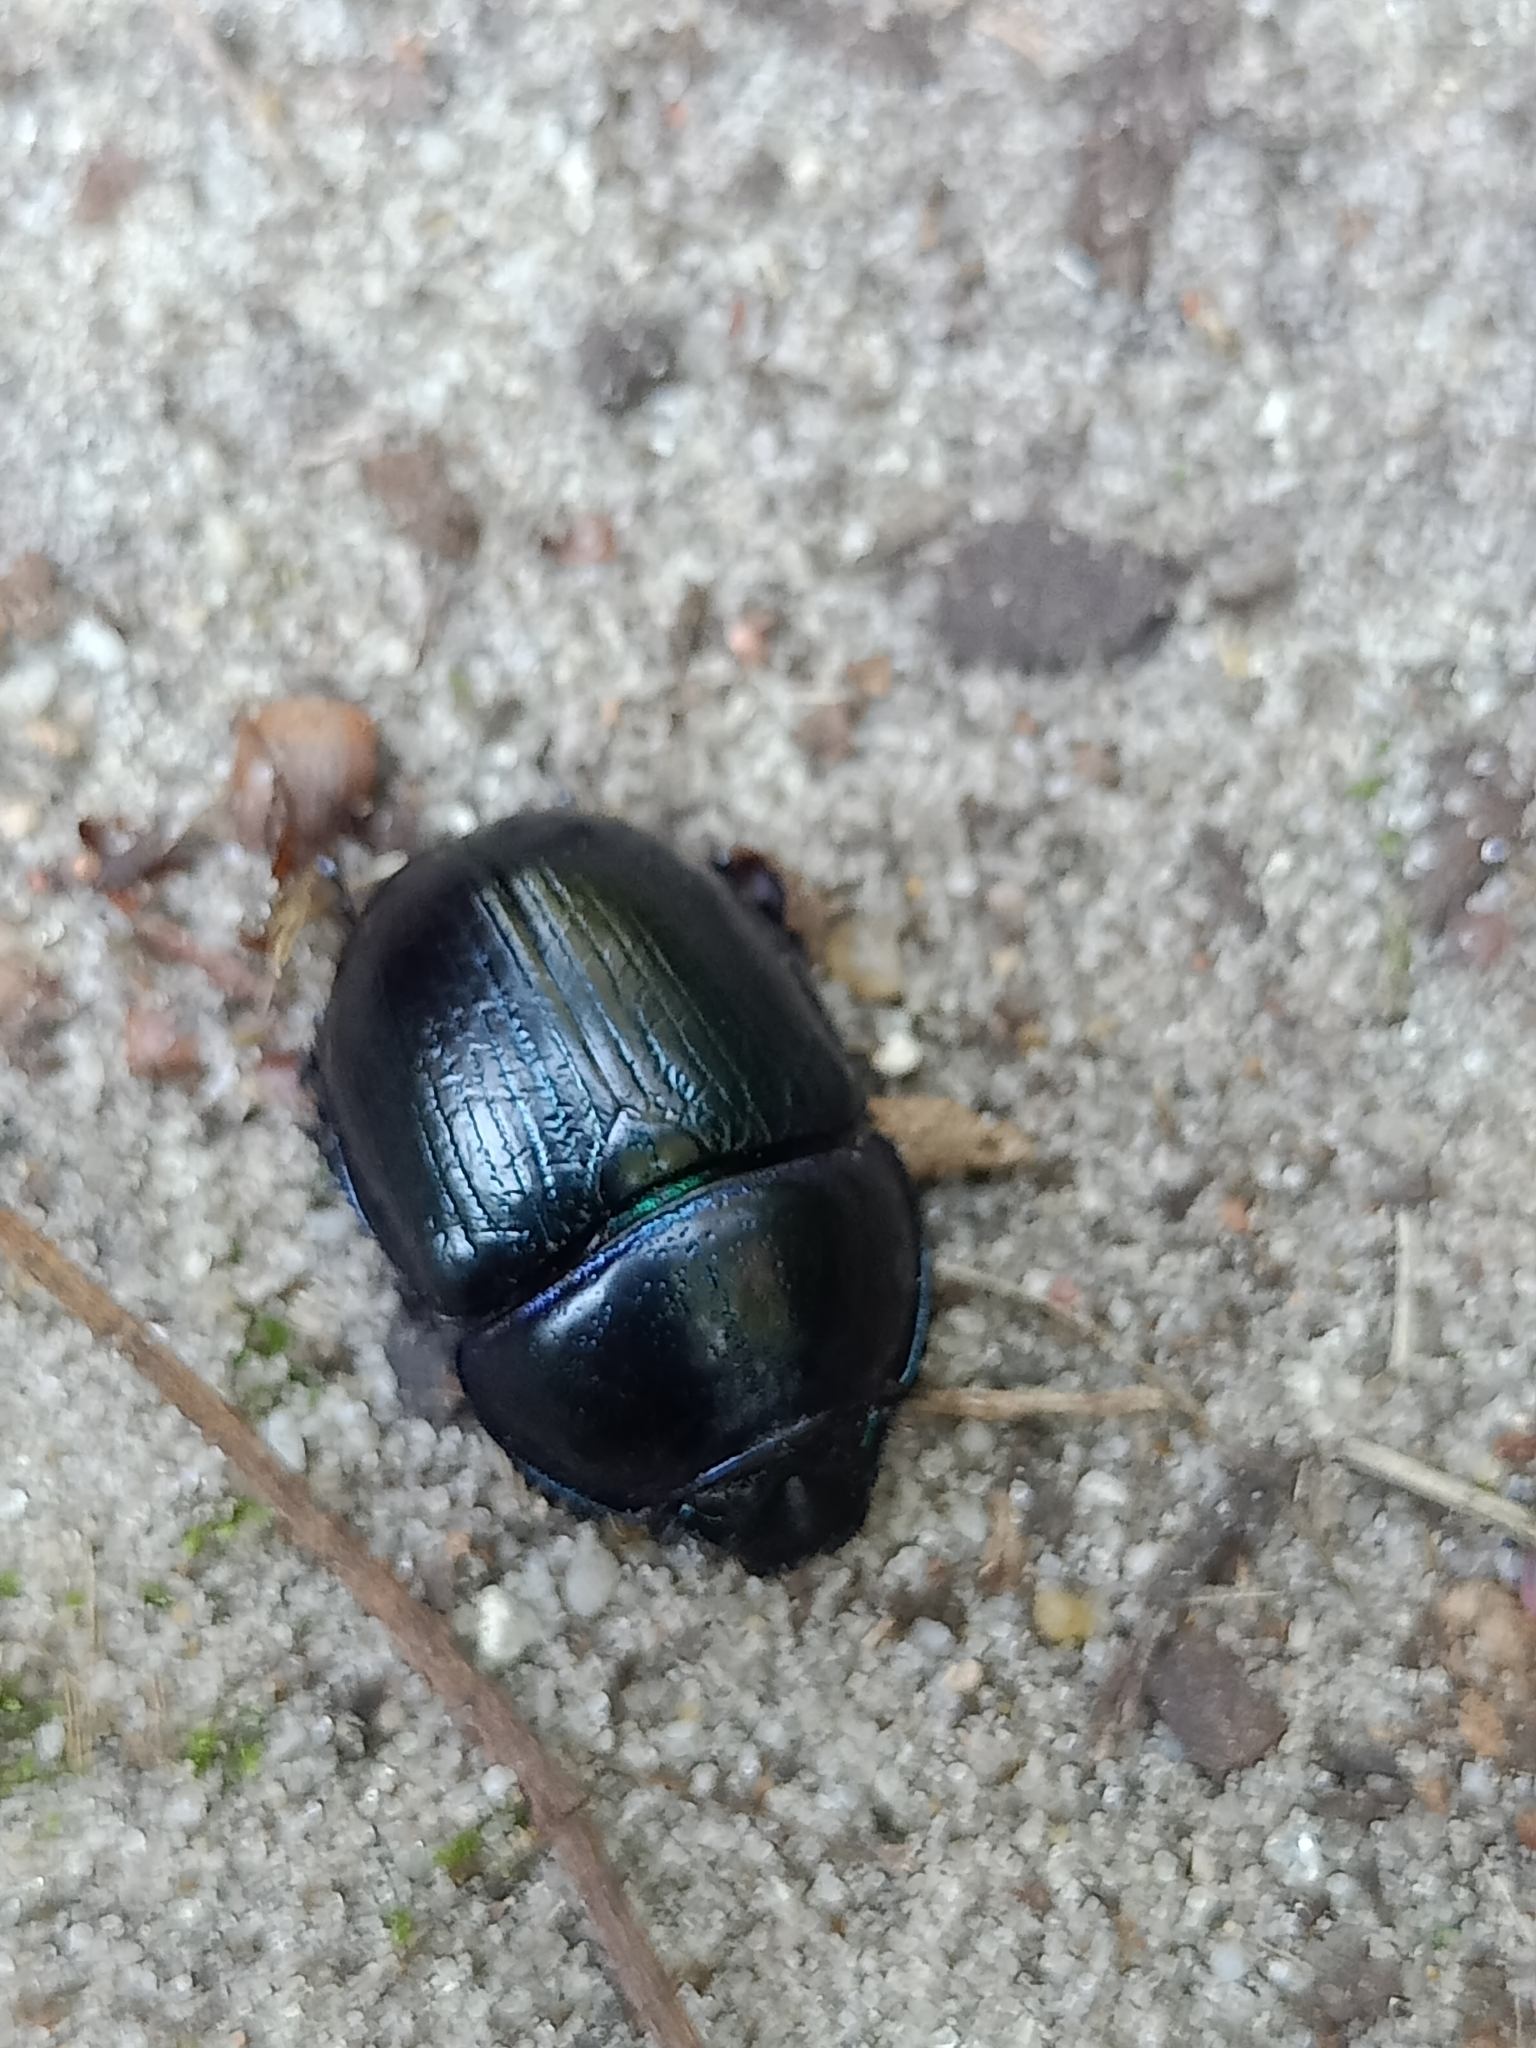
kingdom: Animalia
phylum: Arthropoda
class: Insecta
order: Coleoptera
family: Geotrupidae
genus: Anoplotrupes
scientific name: Anoplotrupes stercorosus
